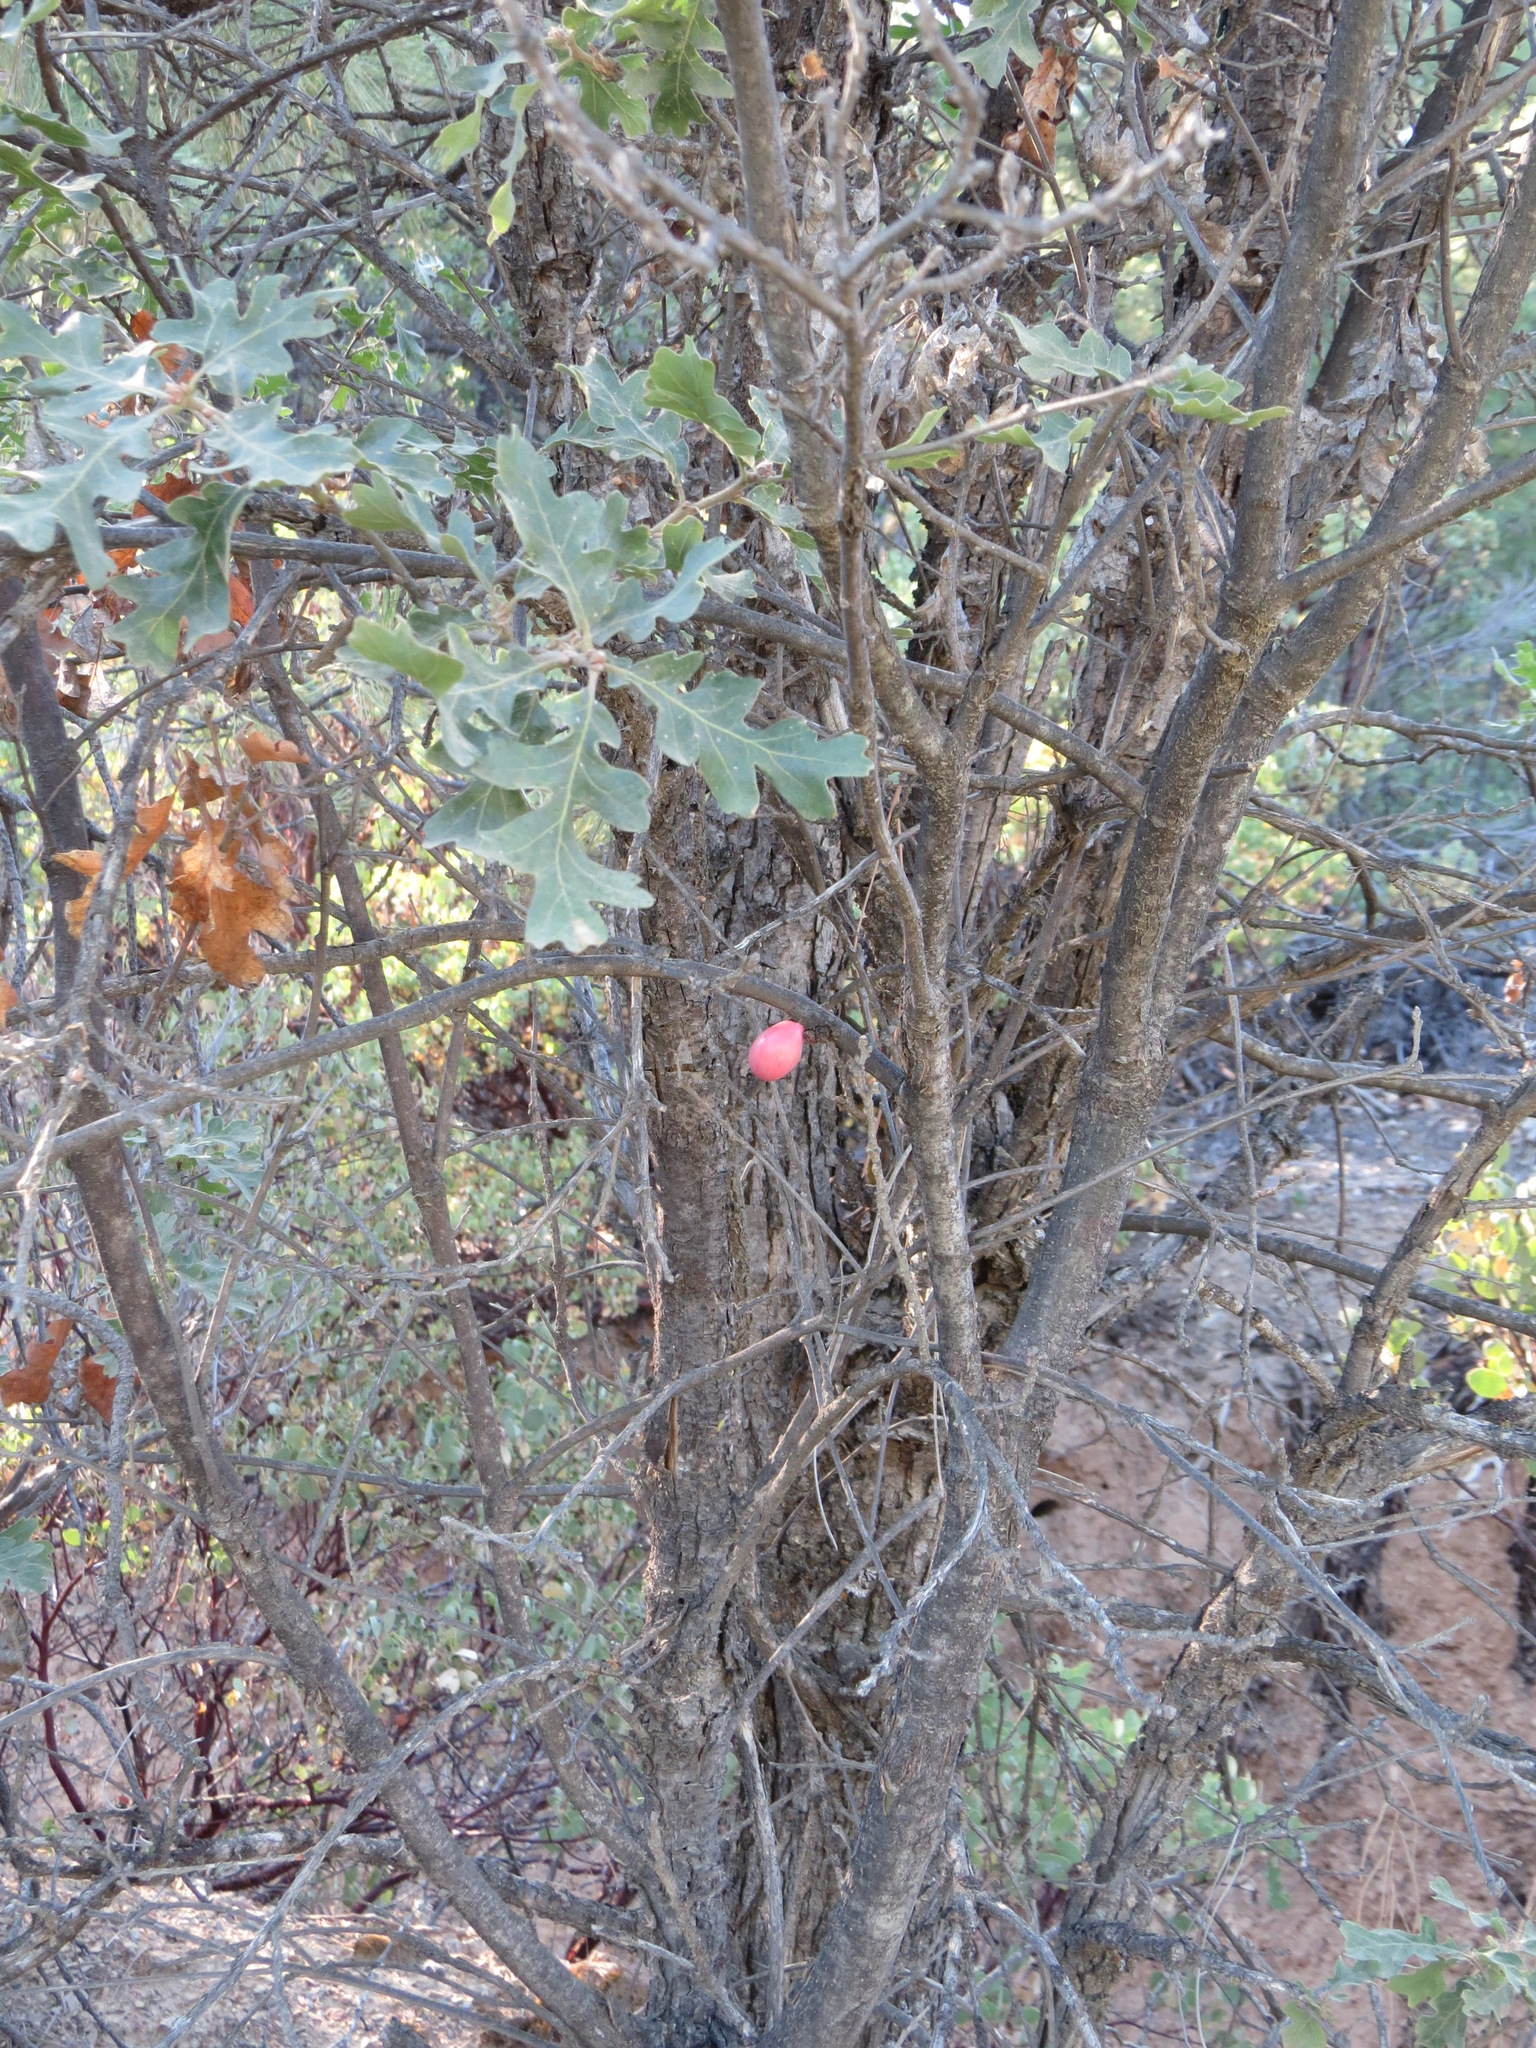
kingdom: Animalia
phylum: Arthropoda
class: Insecta
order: Hymenoptera
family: Cynipidae
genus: Andricus
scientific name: Andricus quercuscalifornicus
